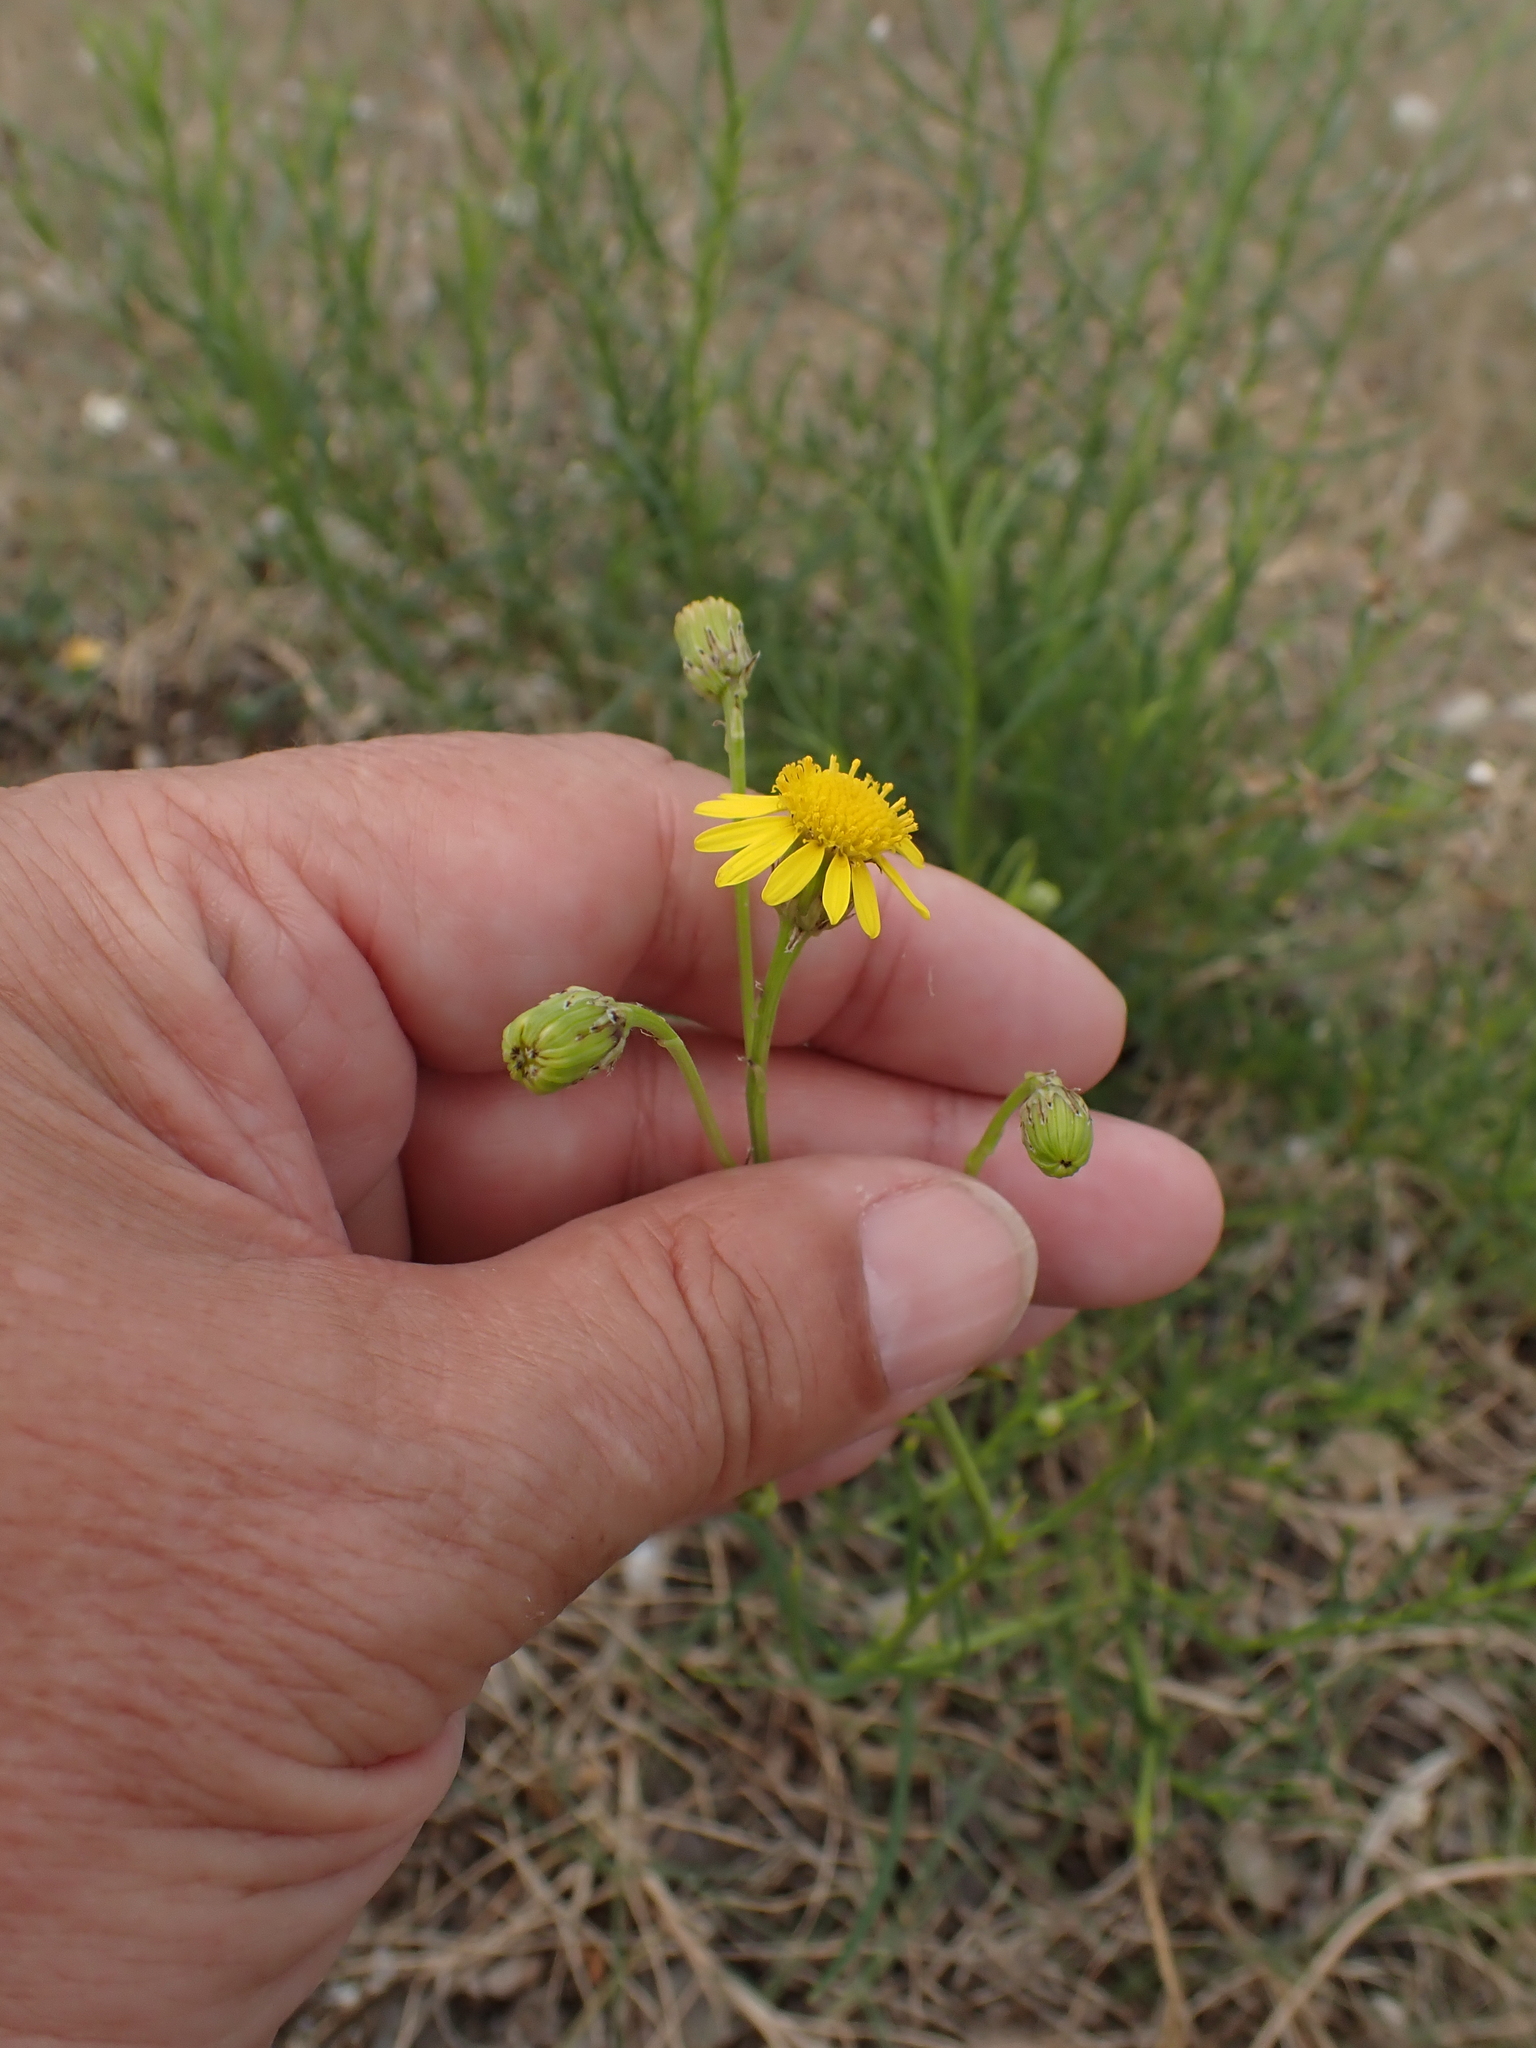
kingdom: Plantae
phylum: Tracheophyta
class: Magnoliopsida
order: Asterales
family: Asteraceae
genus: Senecio
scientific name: Senecio inaequidens
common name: Narrow-leaved ragwort
